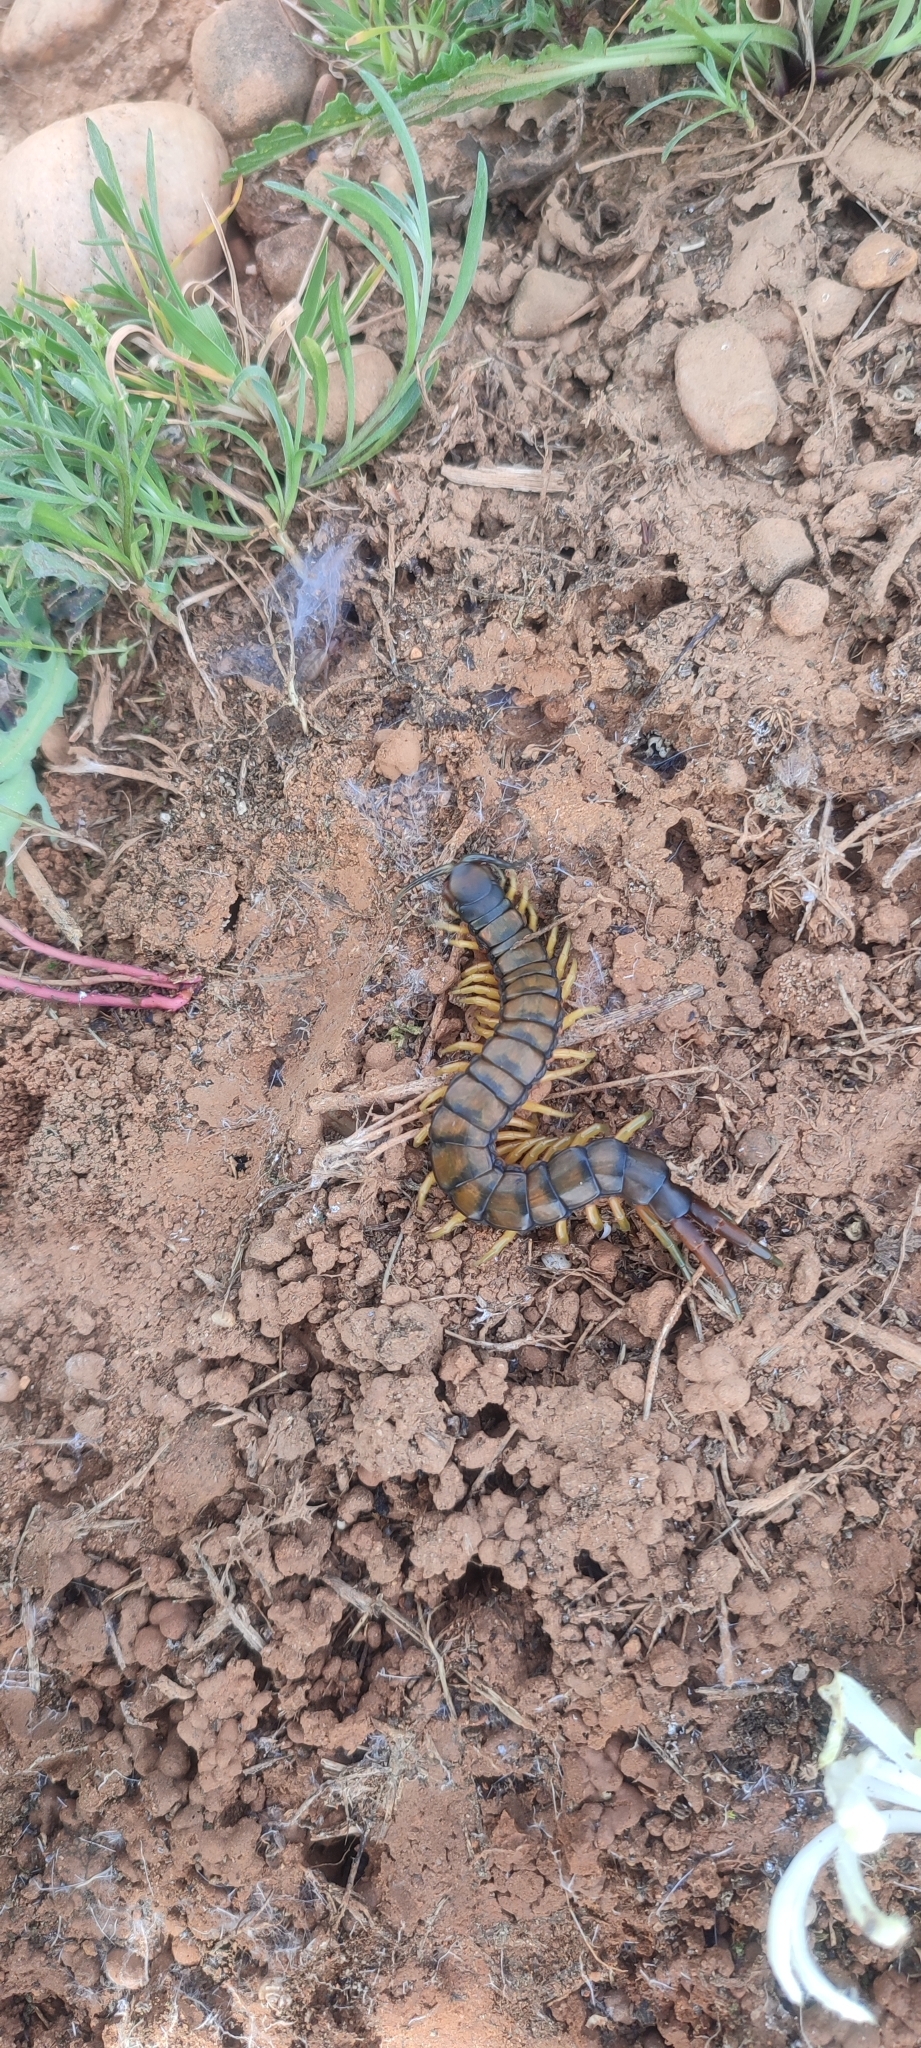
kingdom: Animalia
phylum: Arthropoda
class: Chilopoda
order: Scolopendromorpha
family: Scolopendridae
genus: Scolopendra
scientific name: Scolopendra cingulata
